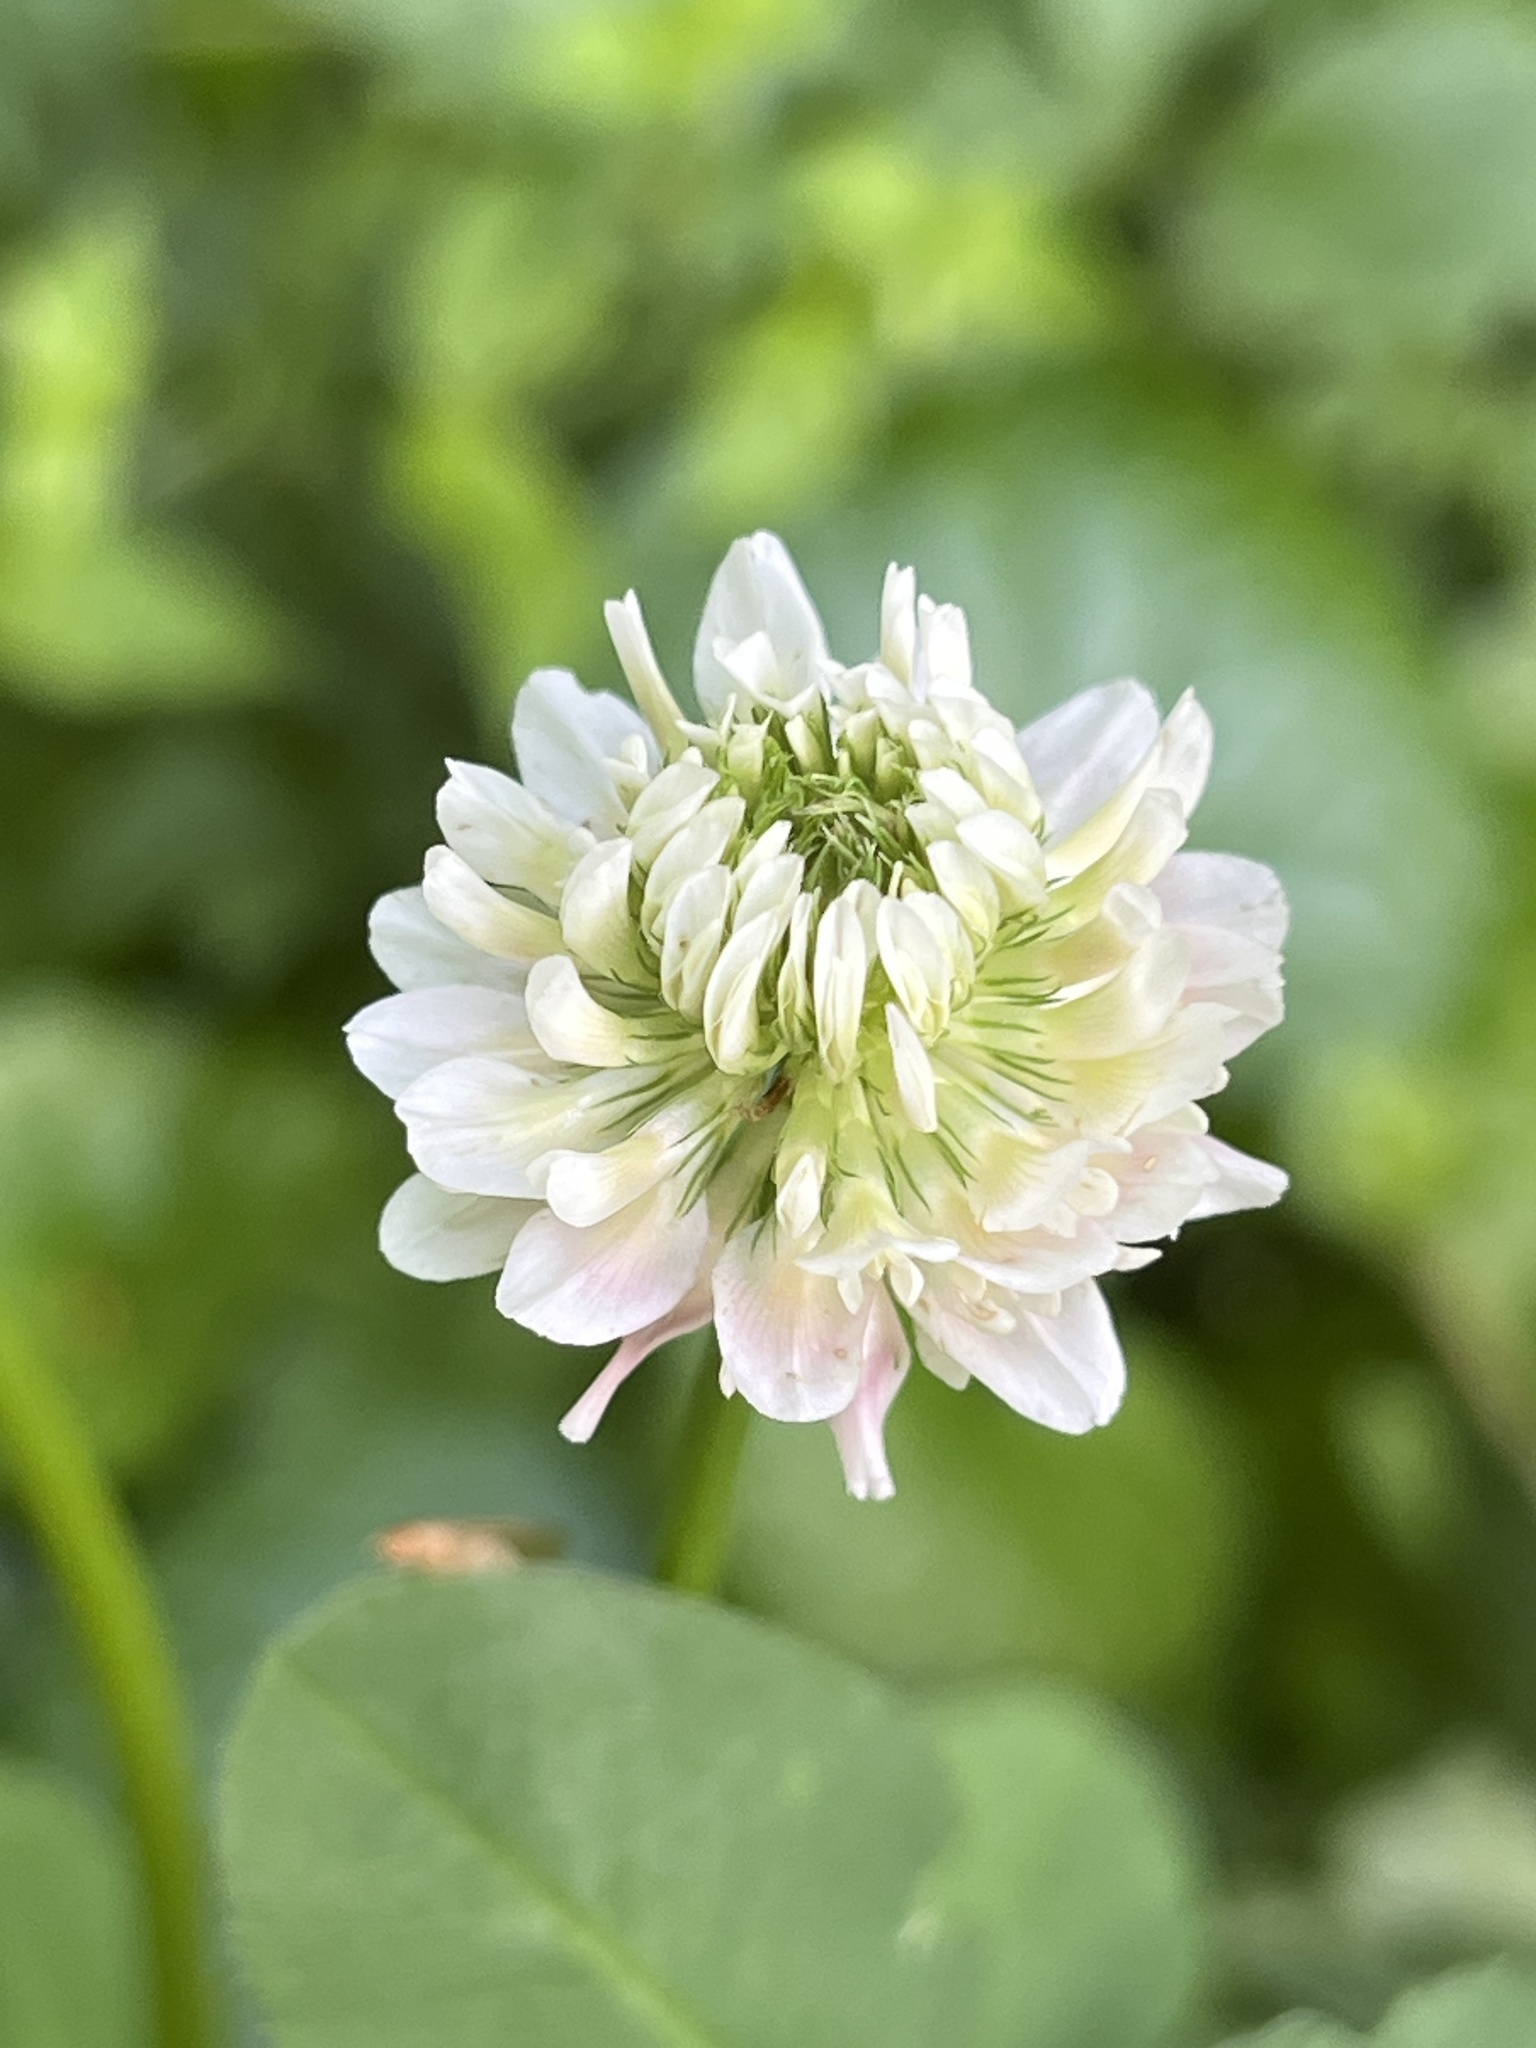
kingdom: Plantae
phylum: Tracheophyta
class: Magnoliopsida
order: Fabales
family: Fabaceae
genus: Trifolium
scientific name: Trifolium repens
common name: White clover
